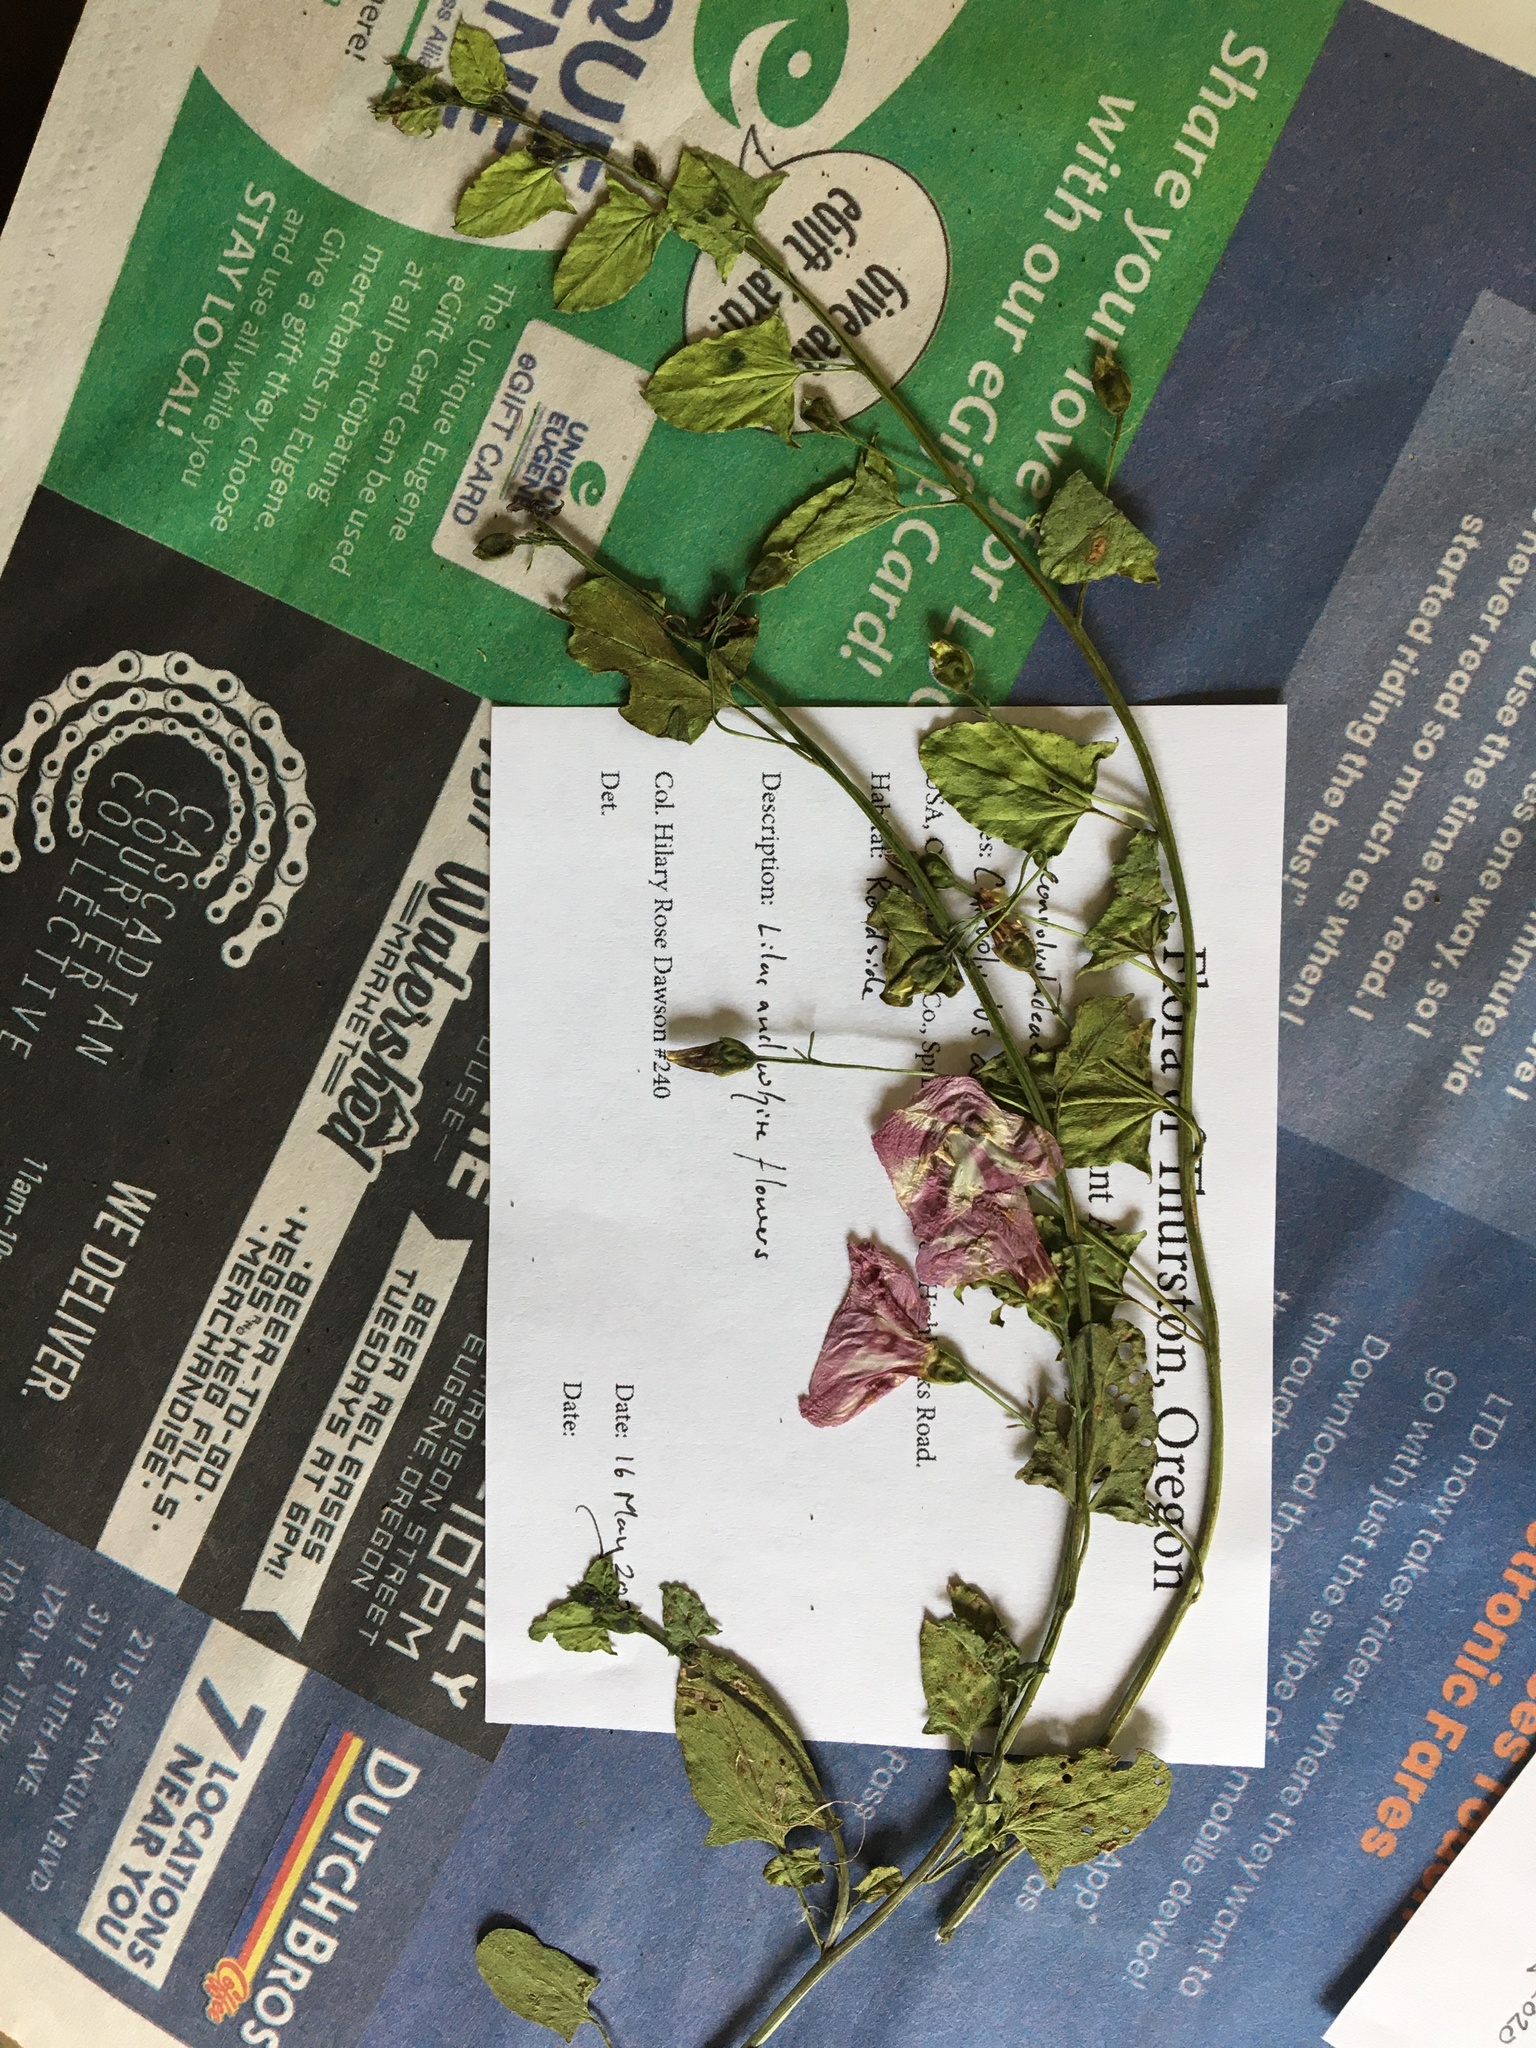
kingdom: Plantae
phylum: Tracheophyta
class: Magnoliopsida
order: Solanales
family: Convolvulaceae
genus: Convolvulus
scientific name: Convolvulus arvensis
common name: Field bindweed
